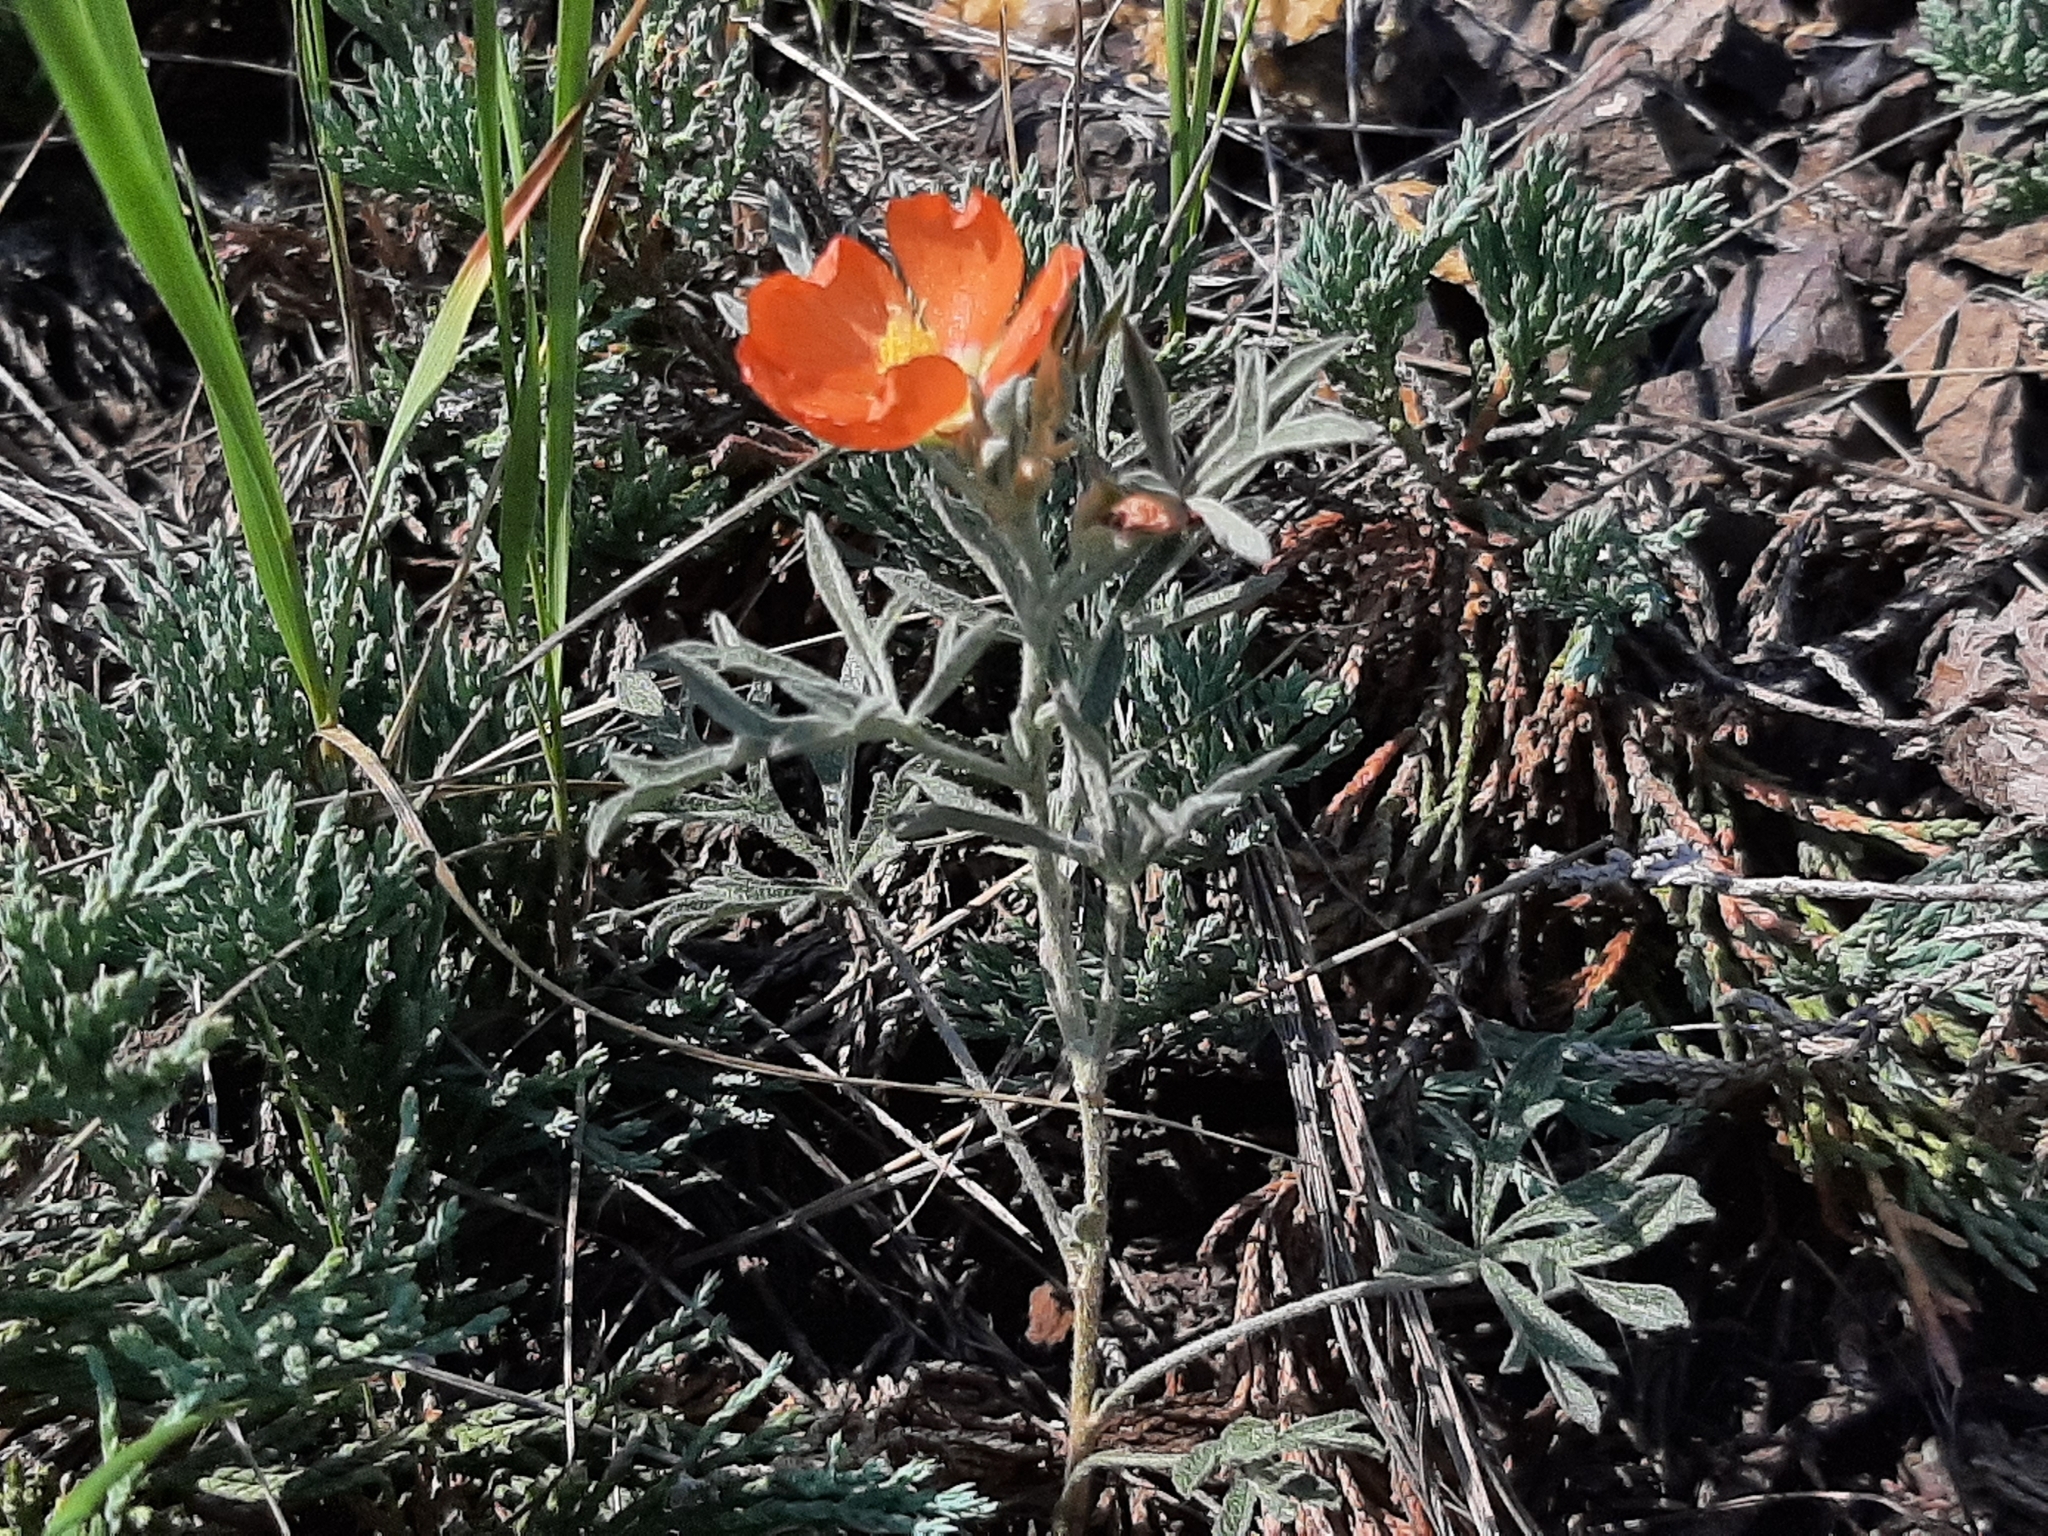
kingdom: Plantae
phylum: Tracheophyta
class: Magnoliopsida
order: Malvales
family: Malvaceae
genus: Sphaeralcea
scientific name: Sphaeralcea coccinea
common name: Moss-rose
